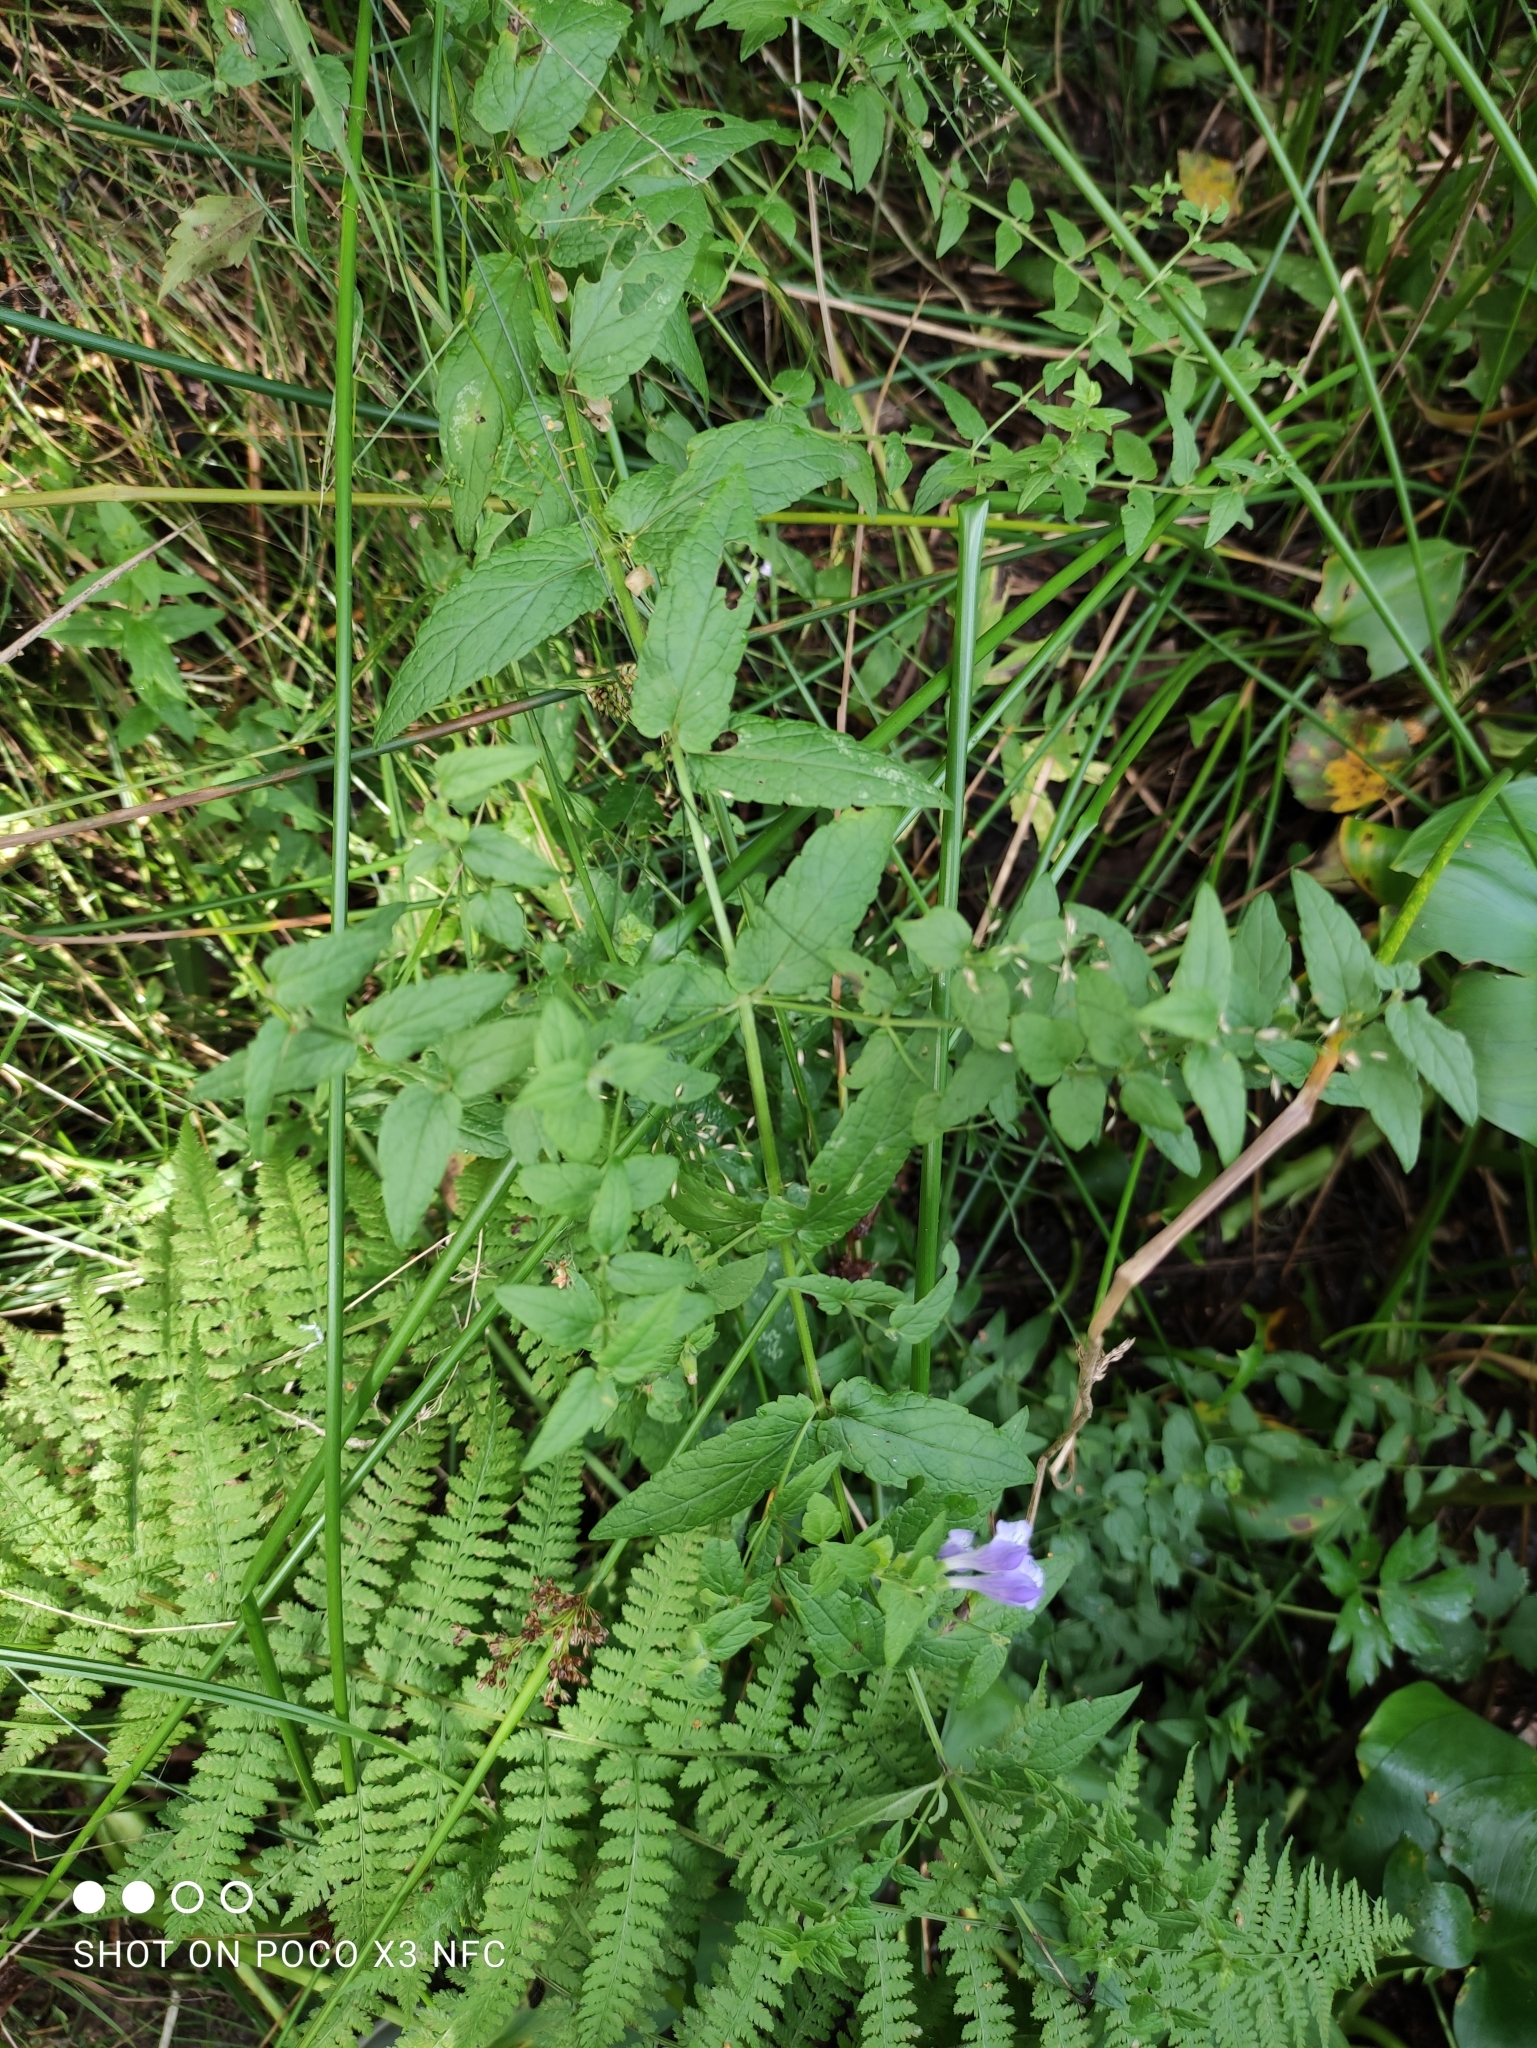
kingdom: Plantae
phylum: Tracheophyta
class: Magnoliopsida
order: Lamiales
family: Lamiaceae
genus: Scutellaria
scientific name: Scutellaria galericulata
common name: Skullcap
